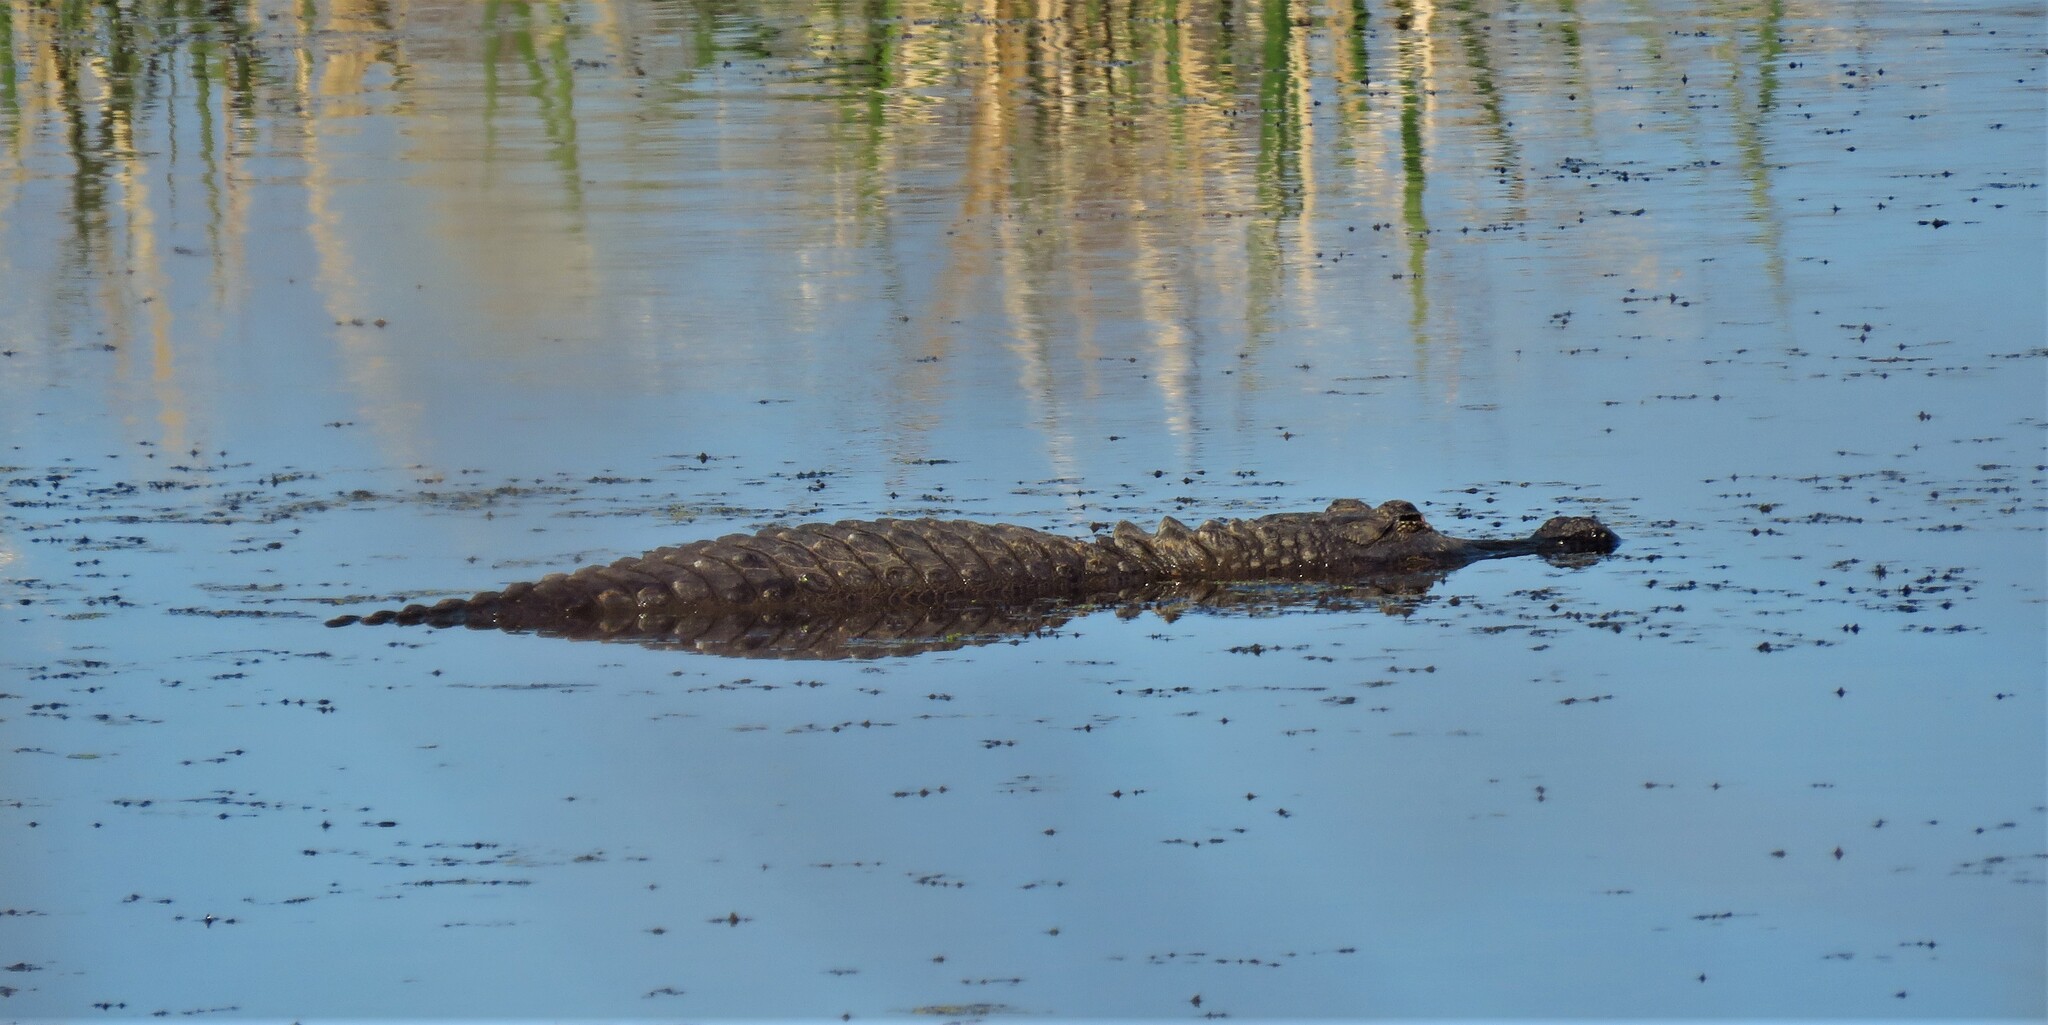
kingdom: Animalia
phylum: Chordata
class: Crocodylia
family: Alligatoridae
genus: Alligator
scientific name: Alligator mississippiensis
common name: American alligator
